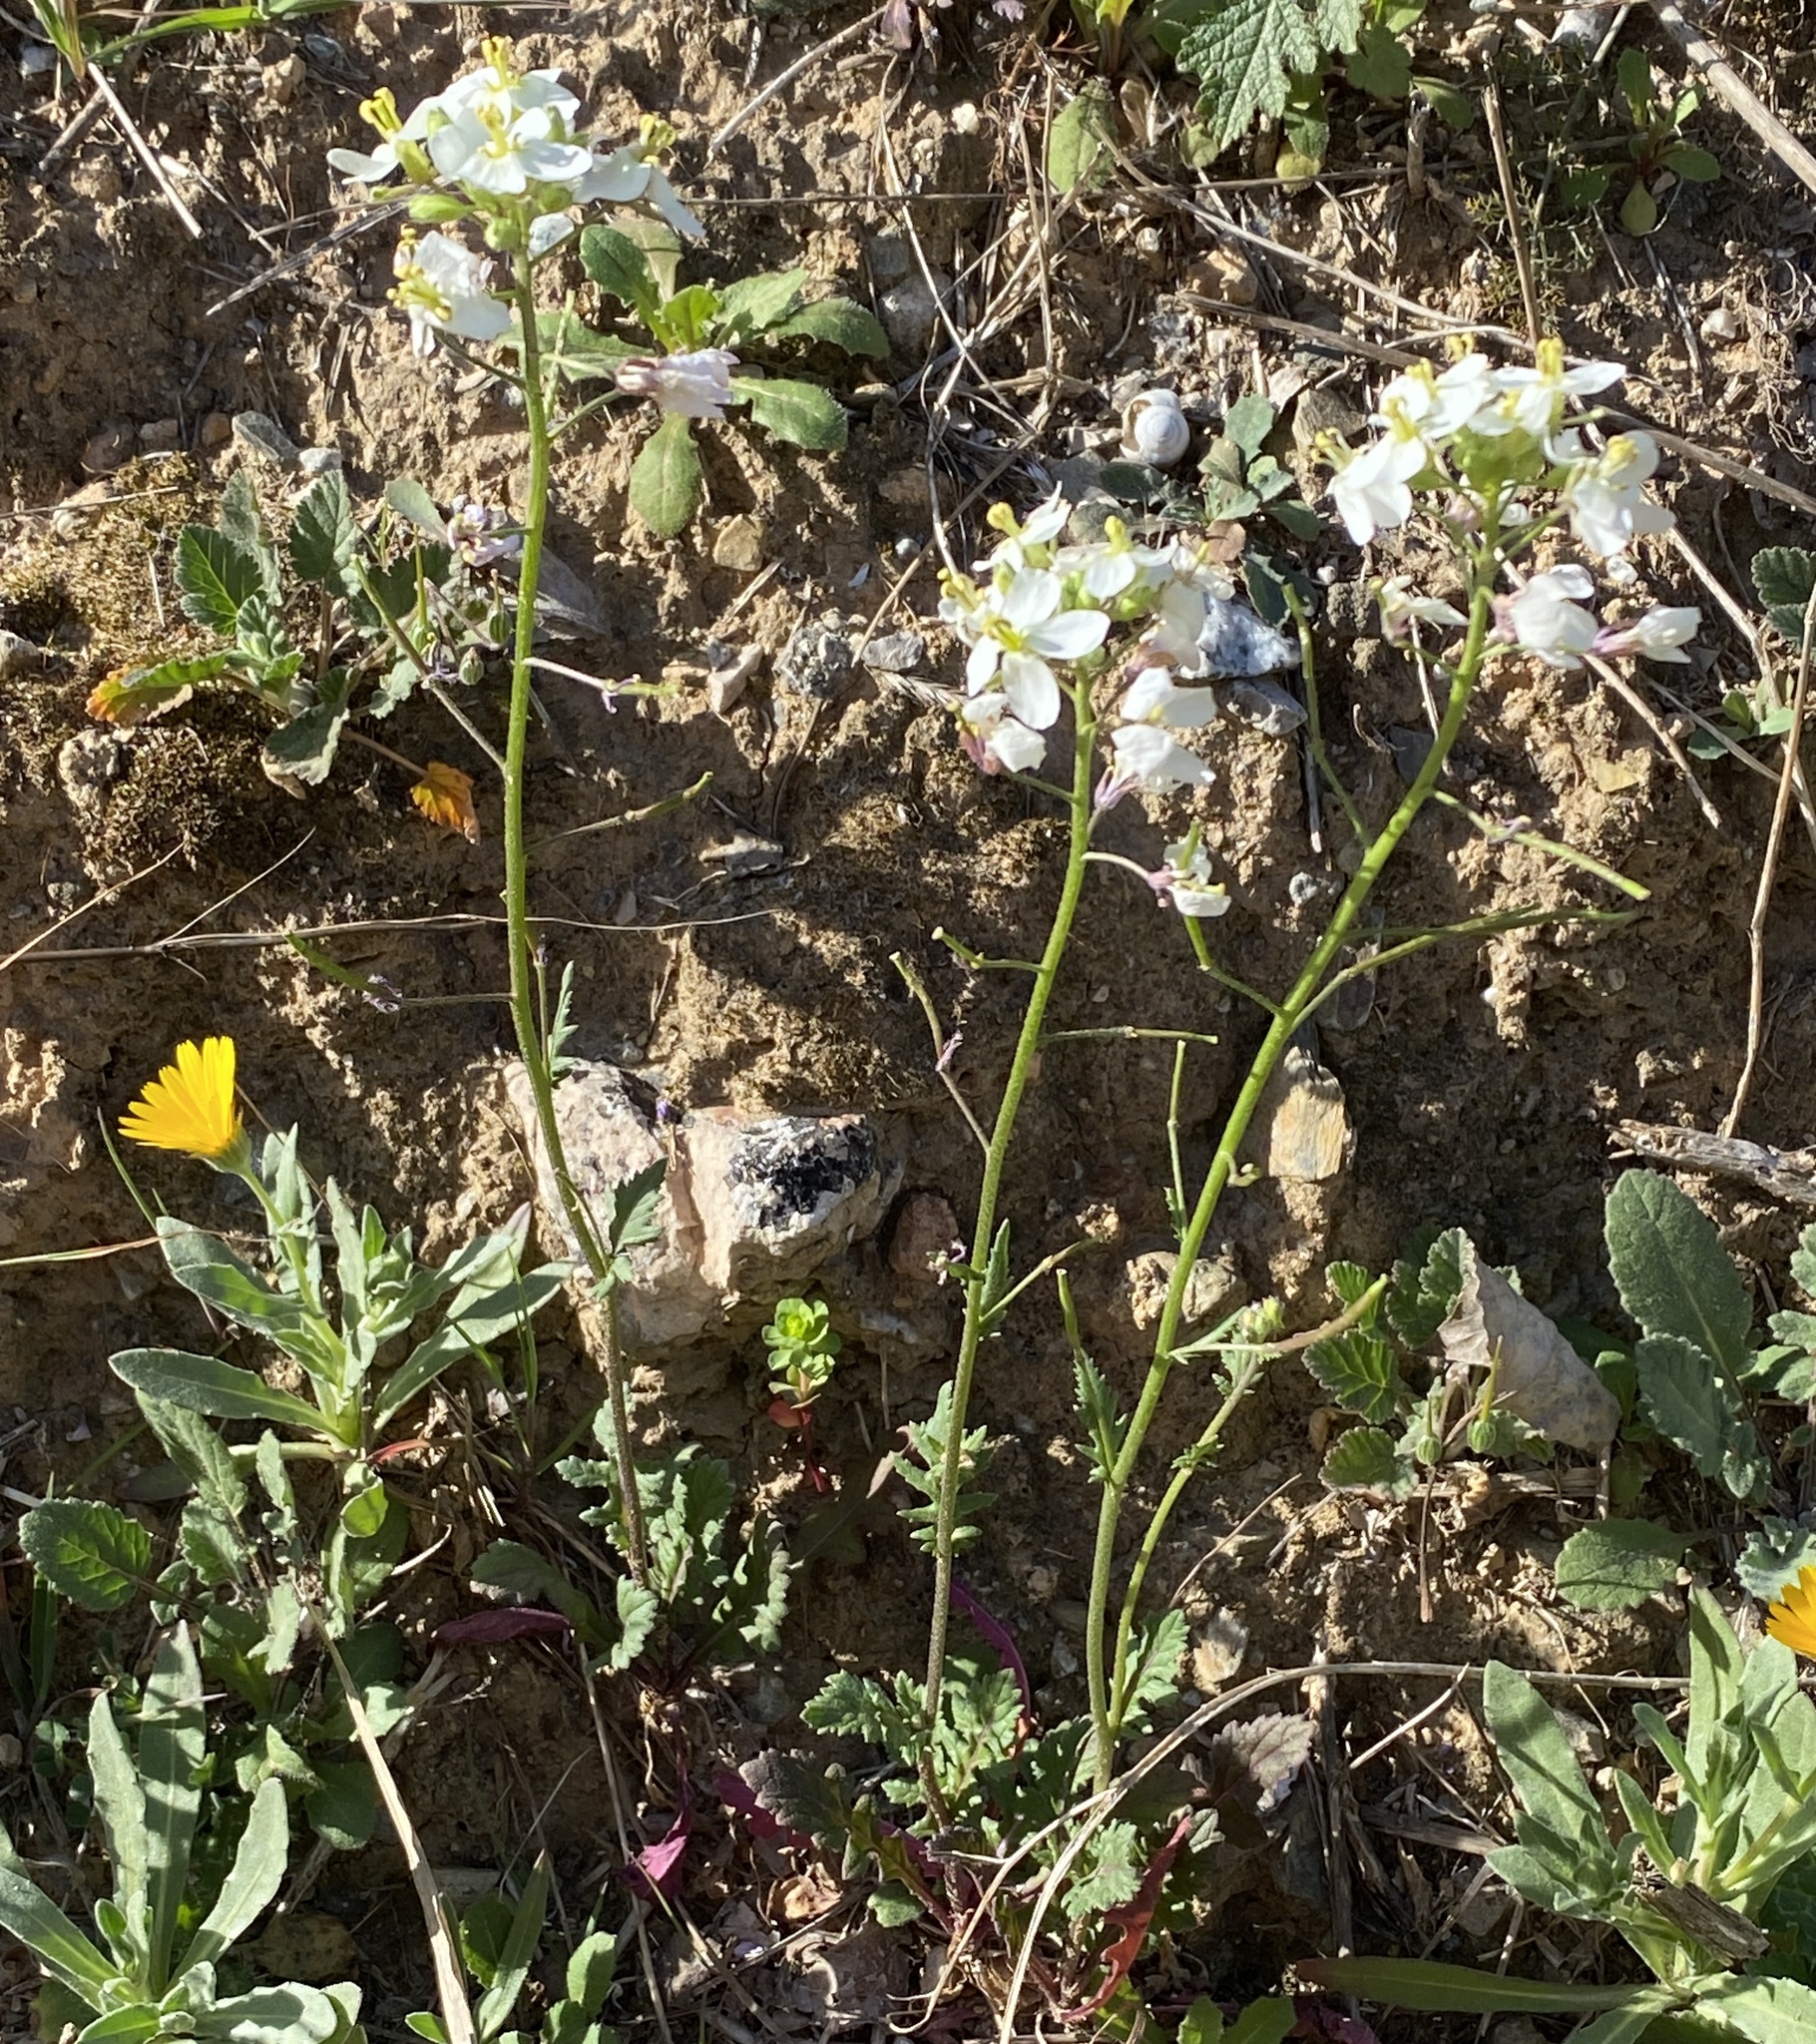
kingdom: Plantae
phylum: Tracheophyta
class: Magnoliopsida
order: Brassicales
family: Brassicaceae
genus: Diplotaxis
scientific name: Diplotaxis erucoides
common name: White rocket
